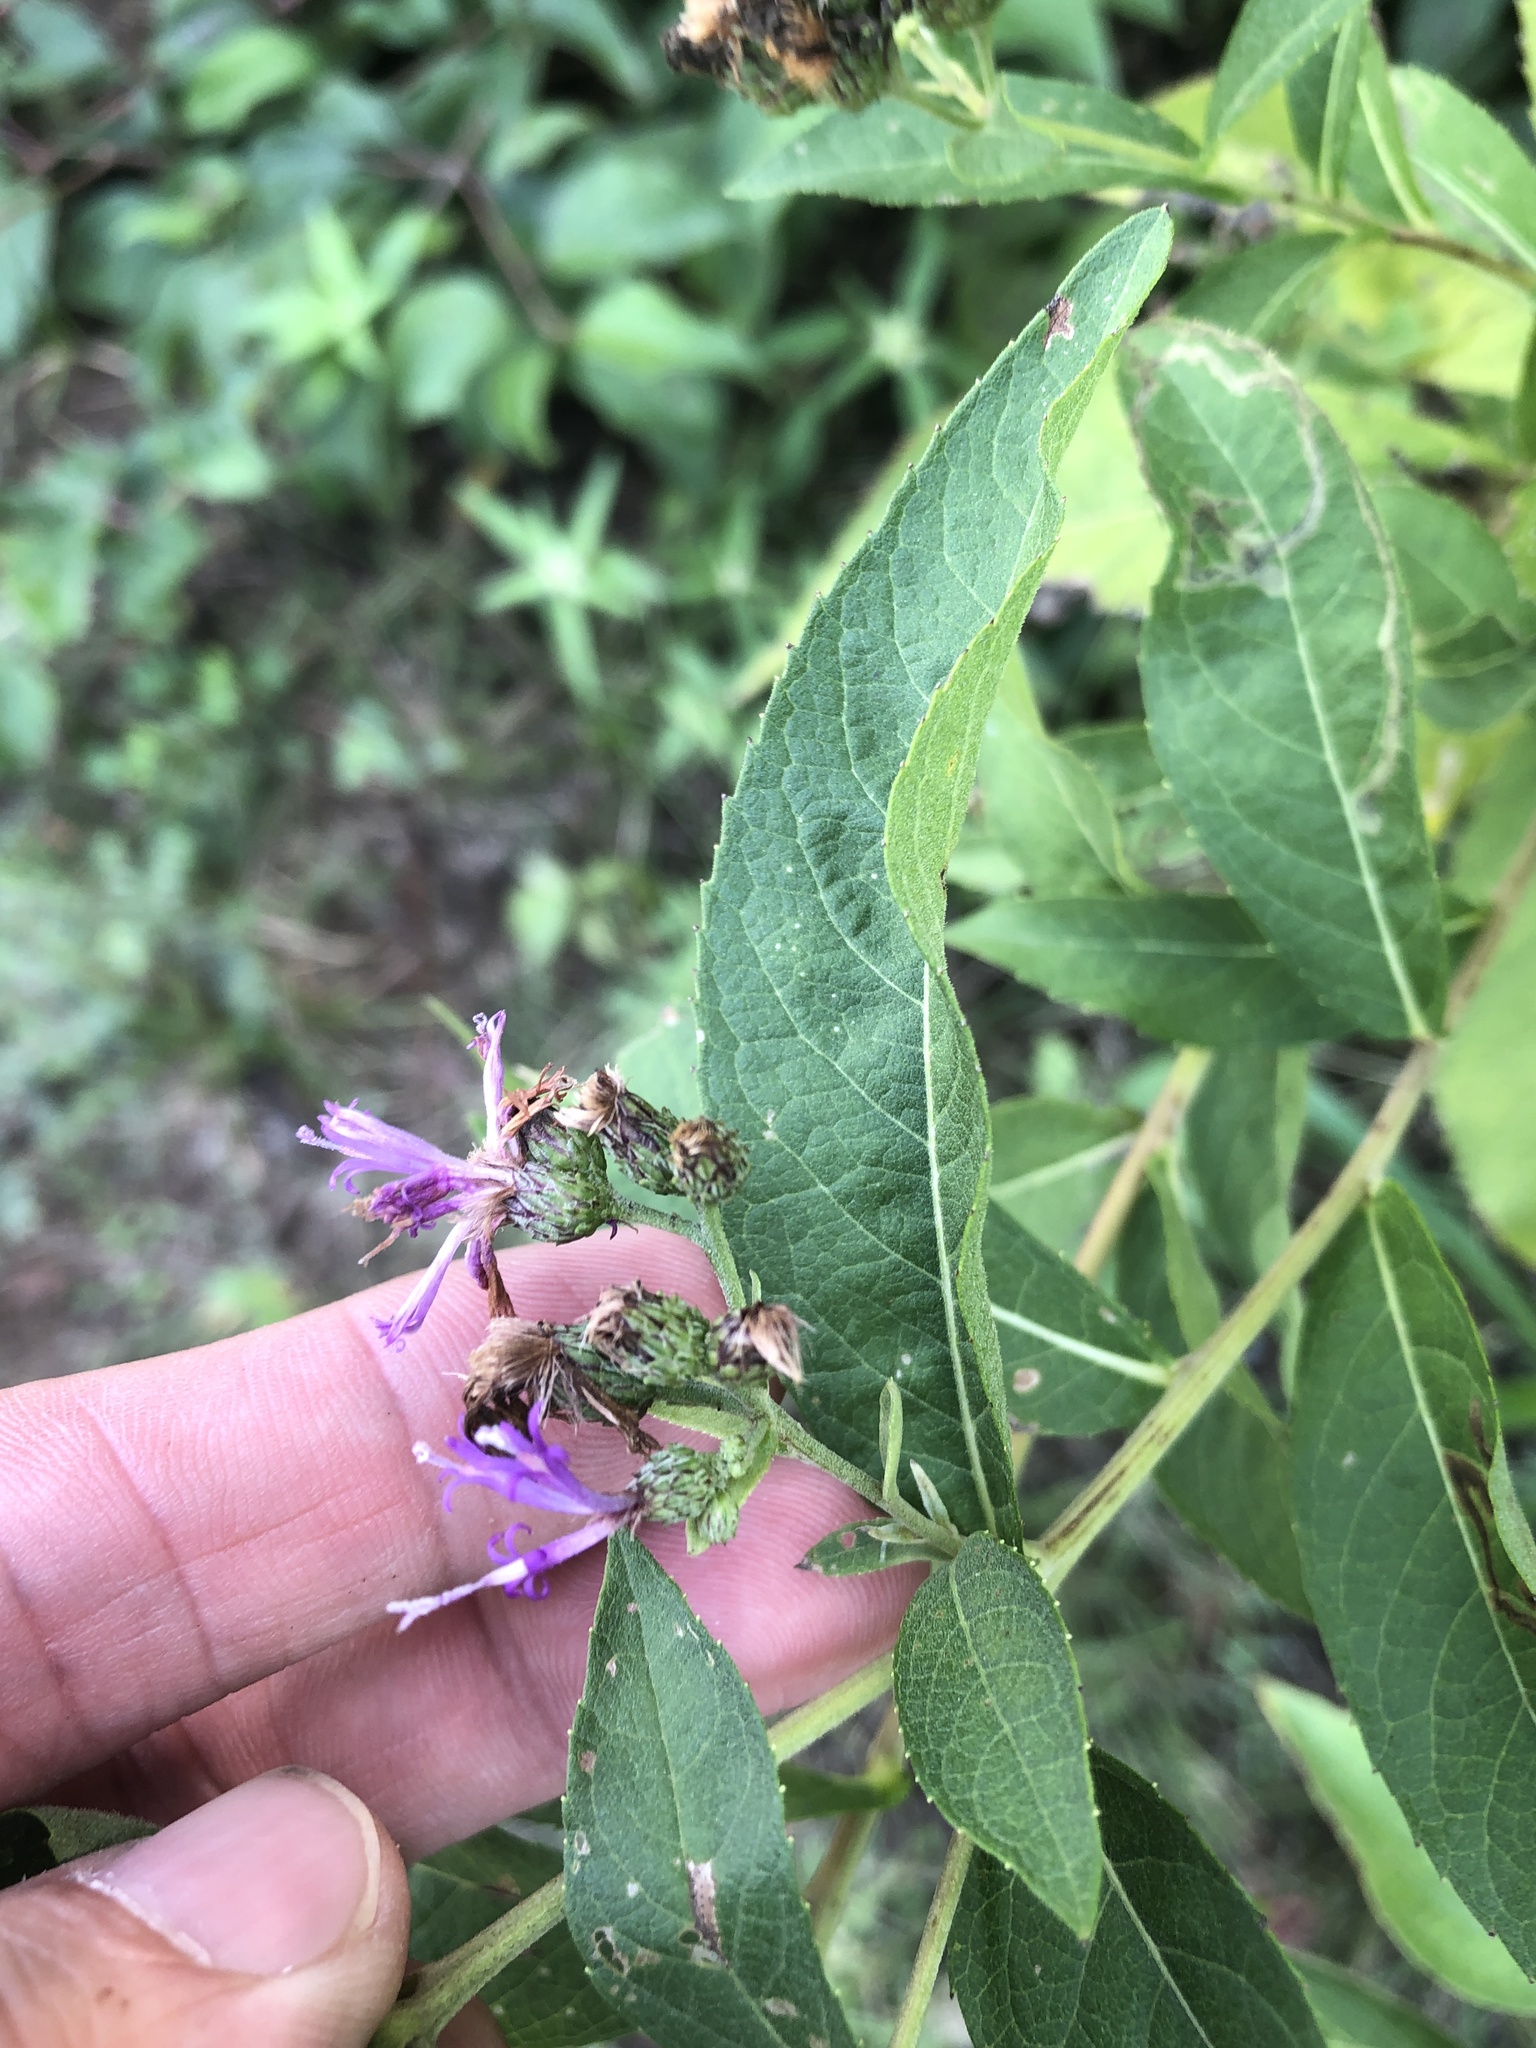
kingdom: Plantae
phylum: Tracheophyta
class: Magnoliopsida
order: Asterales
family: Asteraceae
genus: Vernonia
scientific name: Vernonia baldwinii
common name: Western ironweed
